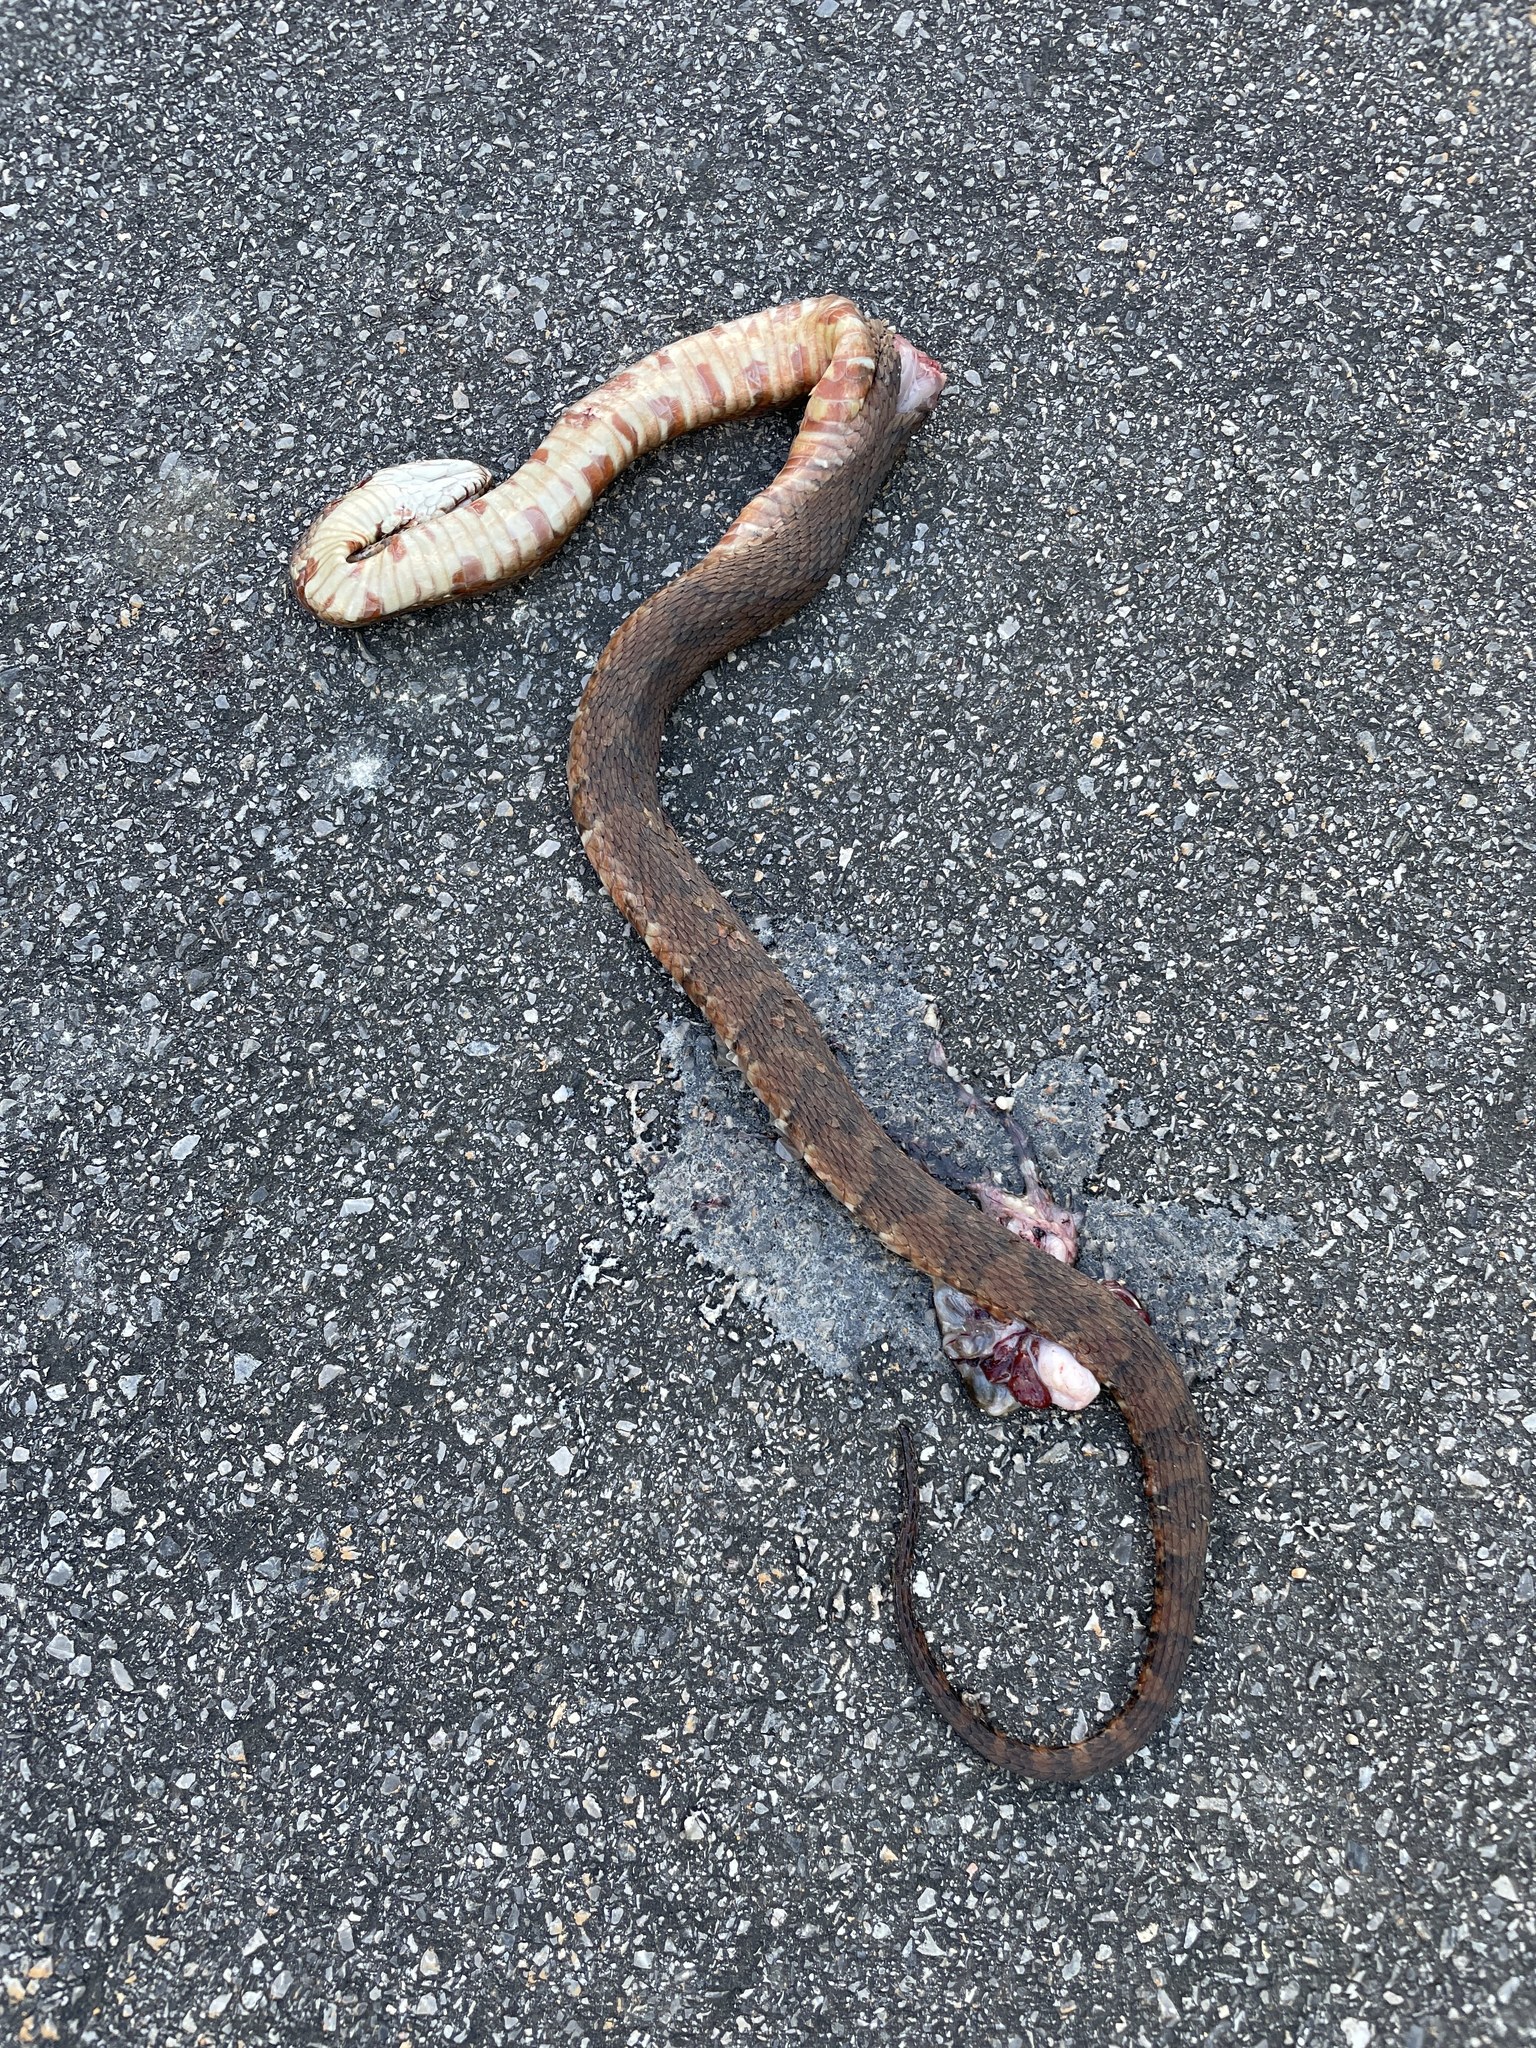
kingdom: Animalia
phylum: Chordata
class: Squamata
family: Colubridae
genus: Nerodia
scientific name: Nerodia fasciata
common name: Southern water snake
